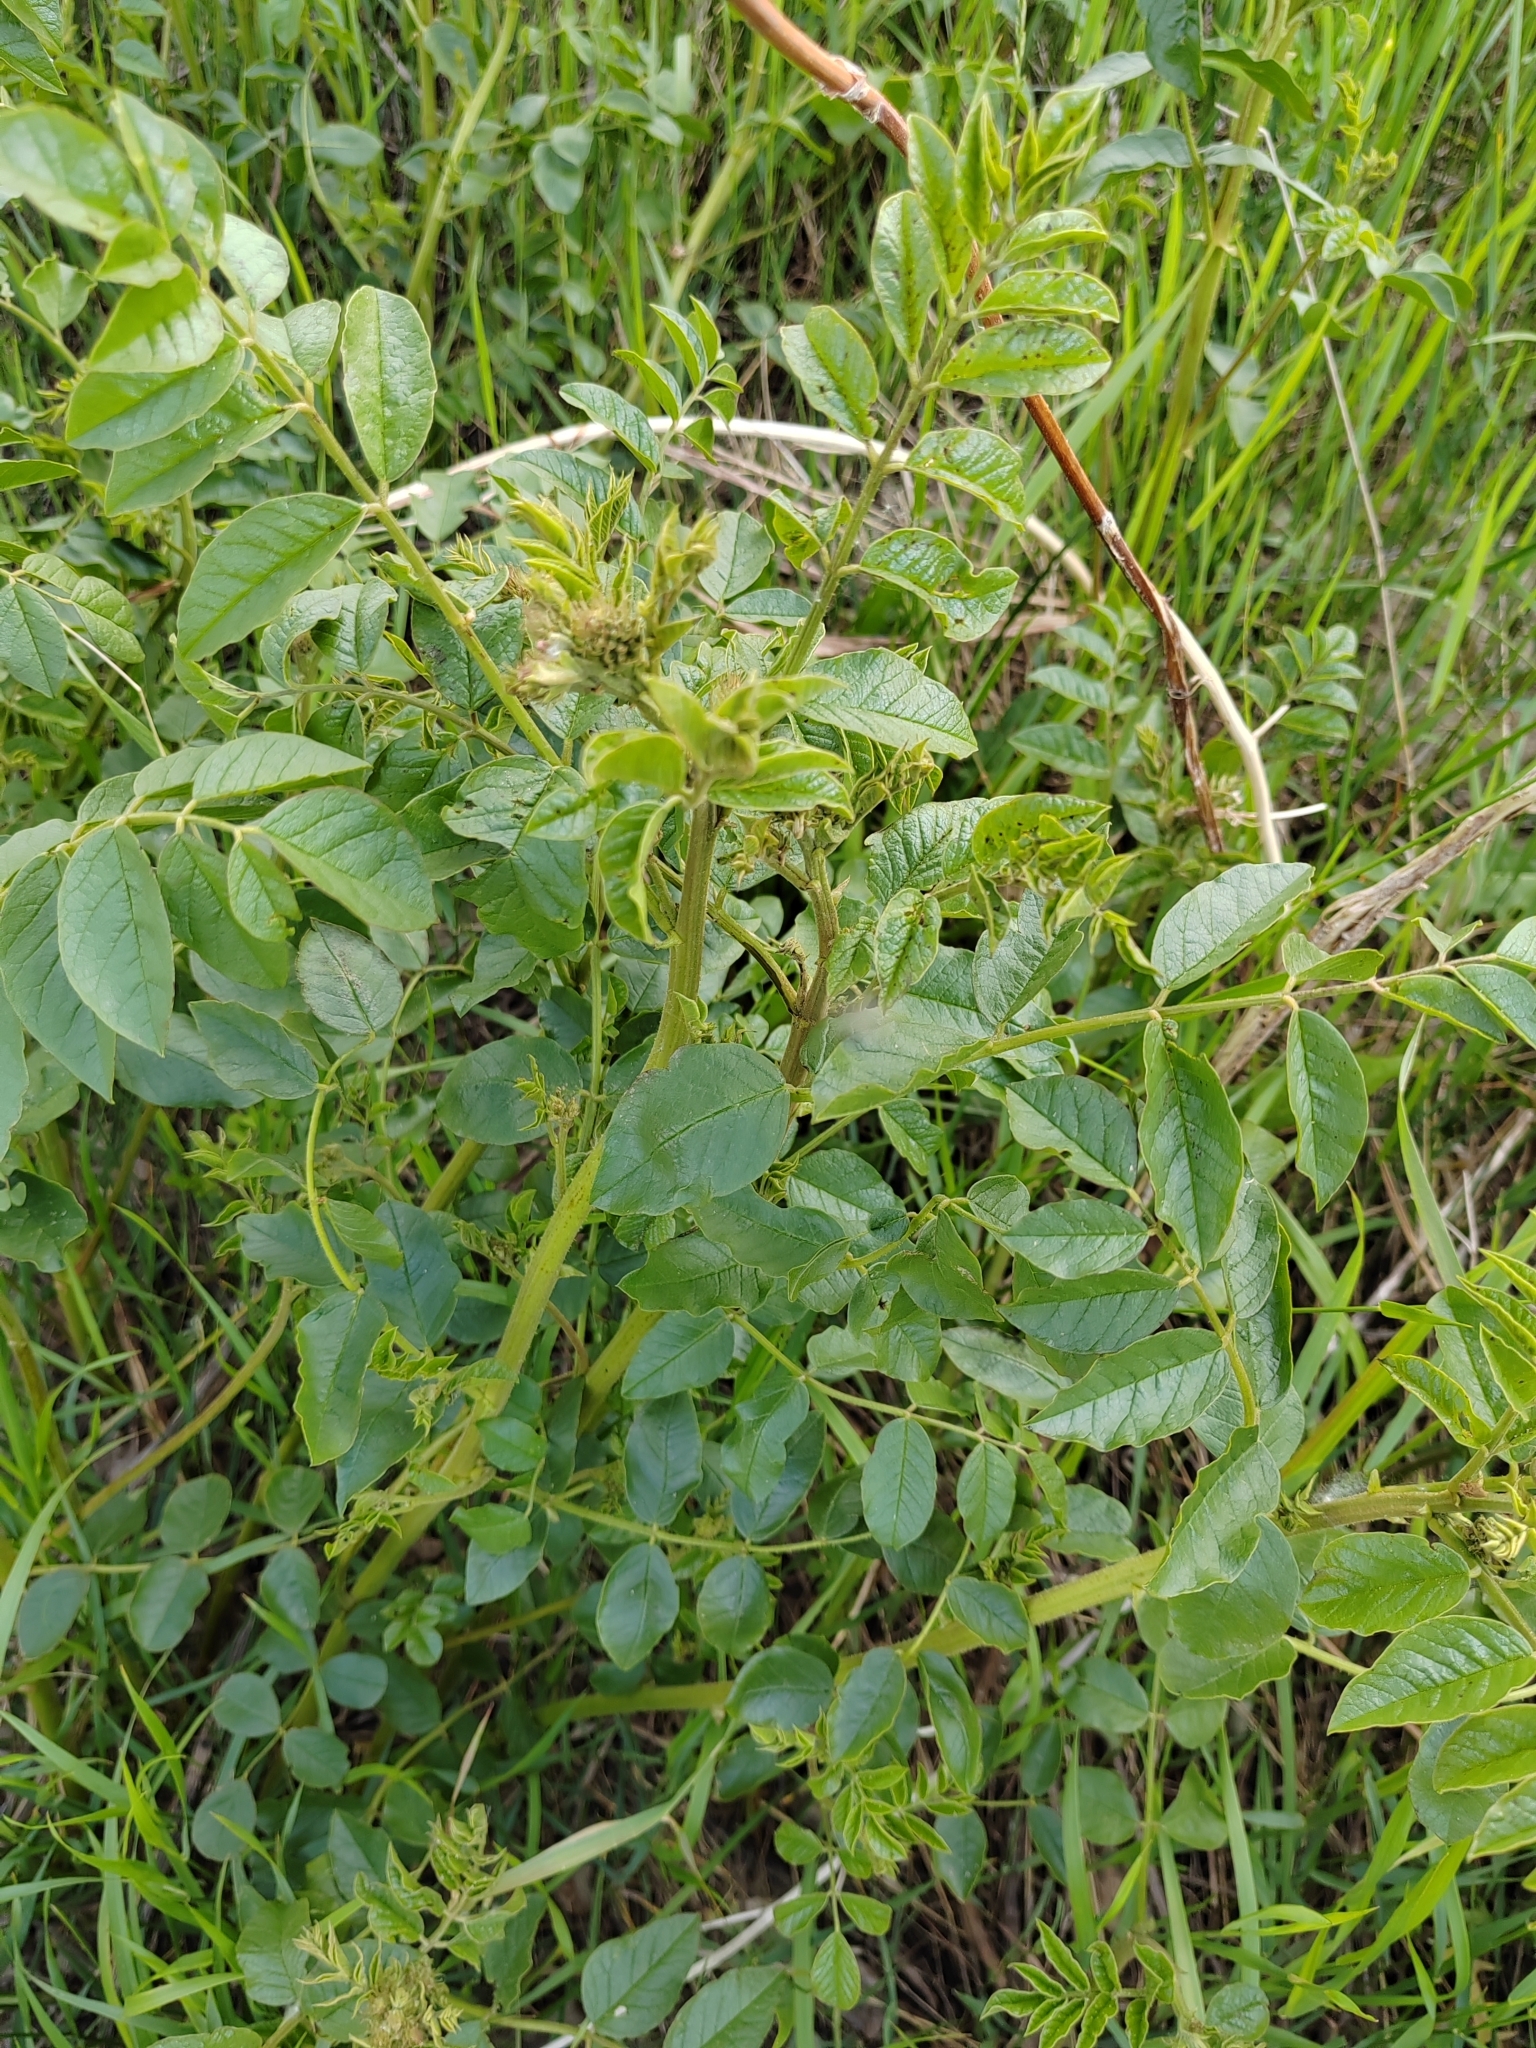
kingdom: Plantae
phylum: Tracheophyta
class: Magnoliopsida
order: Fabales
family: Fabaceae
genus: Glycyrrhiza
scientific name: Glycyrrhiza uralensis
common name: Chinese licorice
